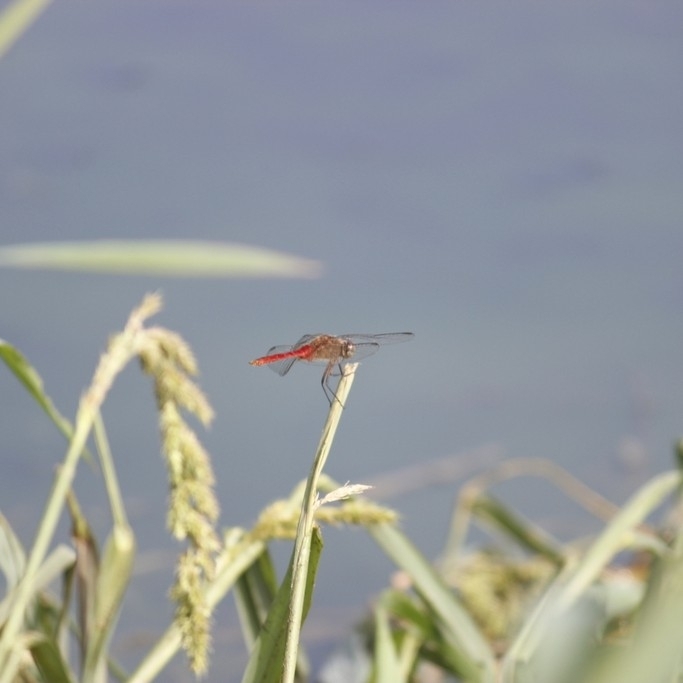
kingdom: Animalia
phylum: Arthropoda
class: Insecta
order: Odonata
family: Libellulidae
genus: Brachymesia
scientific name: Brachymesia furcata
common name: Red-taled pennant
